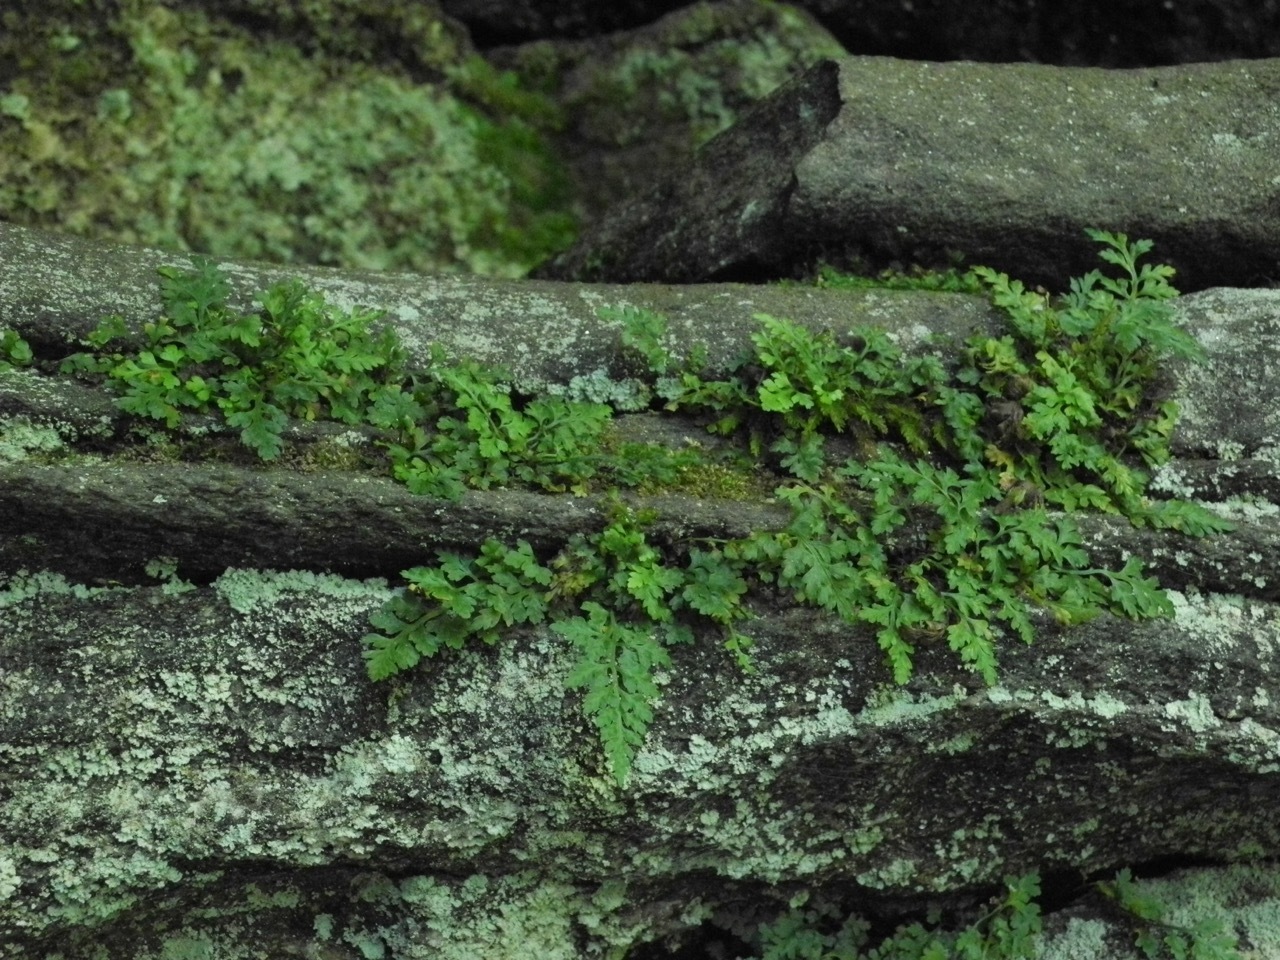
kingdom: Plantae
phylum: Tracheophyta
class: Polypodiopsida
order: Polypodiales
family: Aspleniaceae
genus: Asplenium
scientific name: Asplenium montanum
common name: Mountain spleenwort
